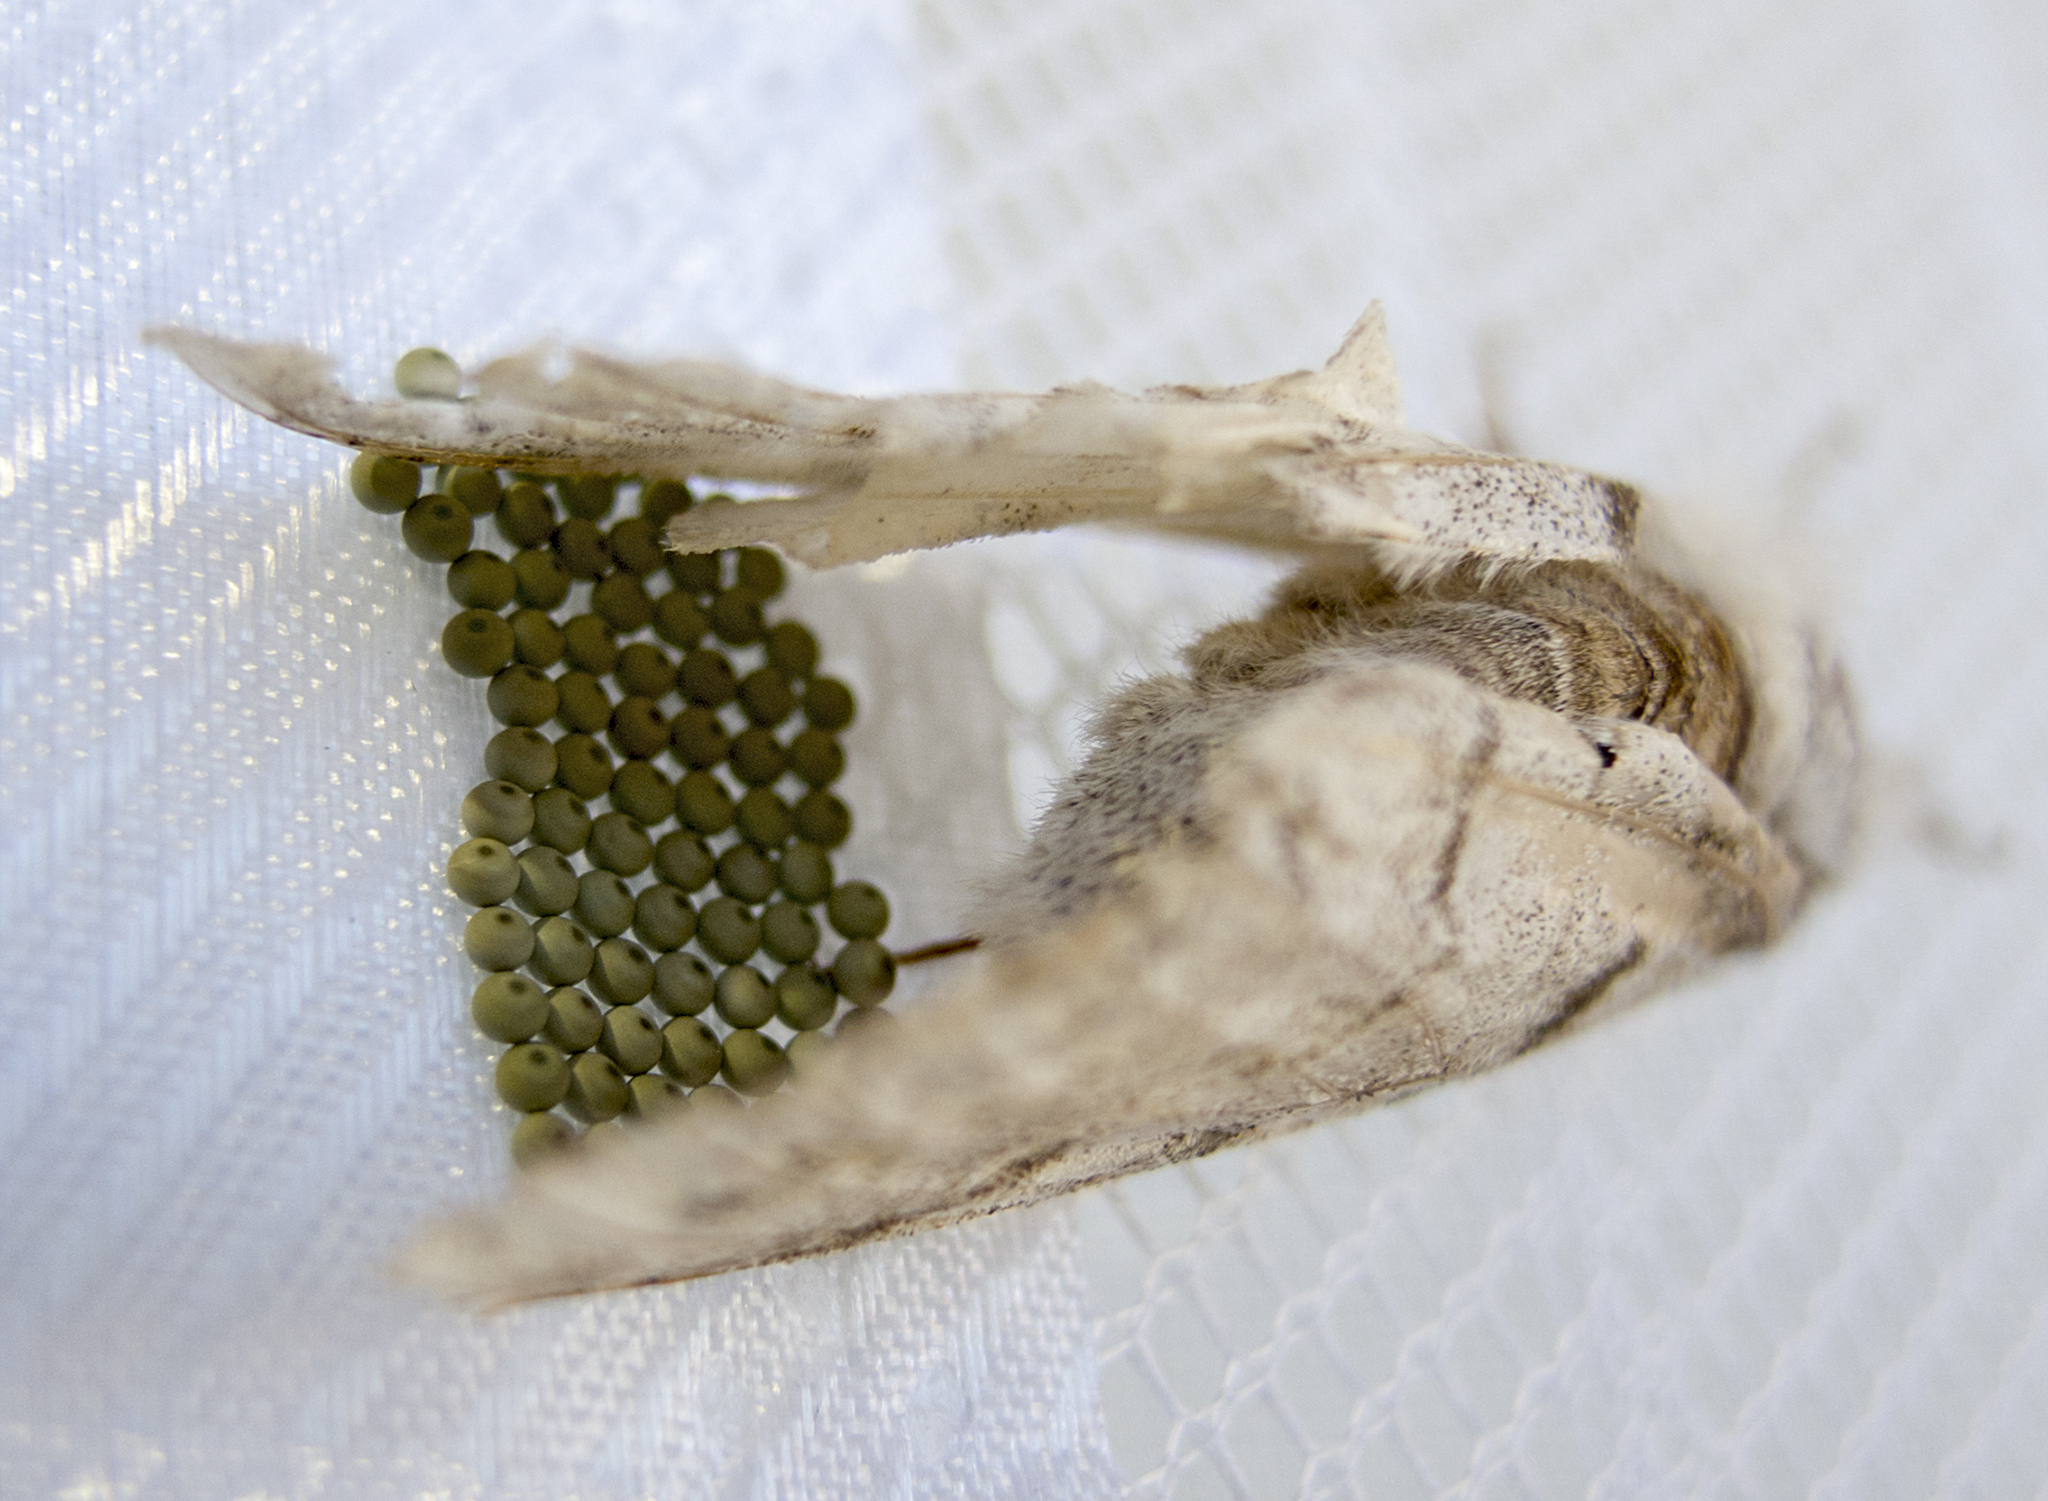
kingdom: Animalia
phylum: Arthropoda
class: Insecta
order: Lepidoptera
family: Erebidae
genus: Calliteara
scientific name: Calliteara pudibunda
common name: Pale tussock
